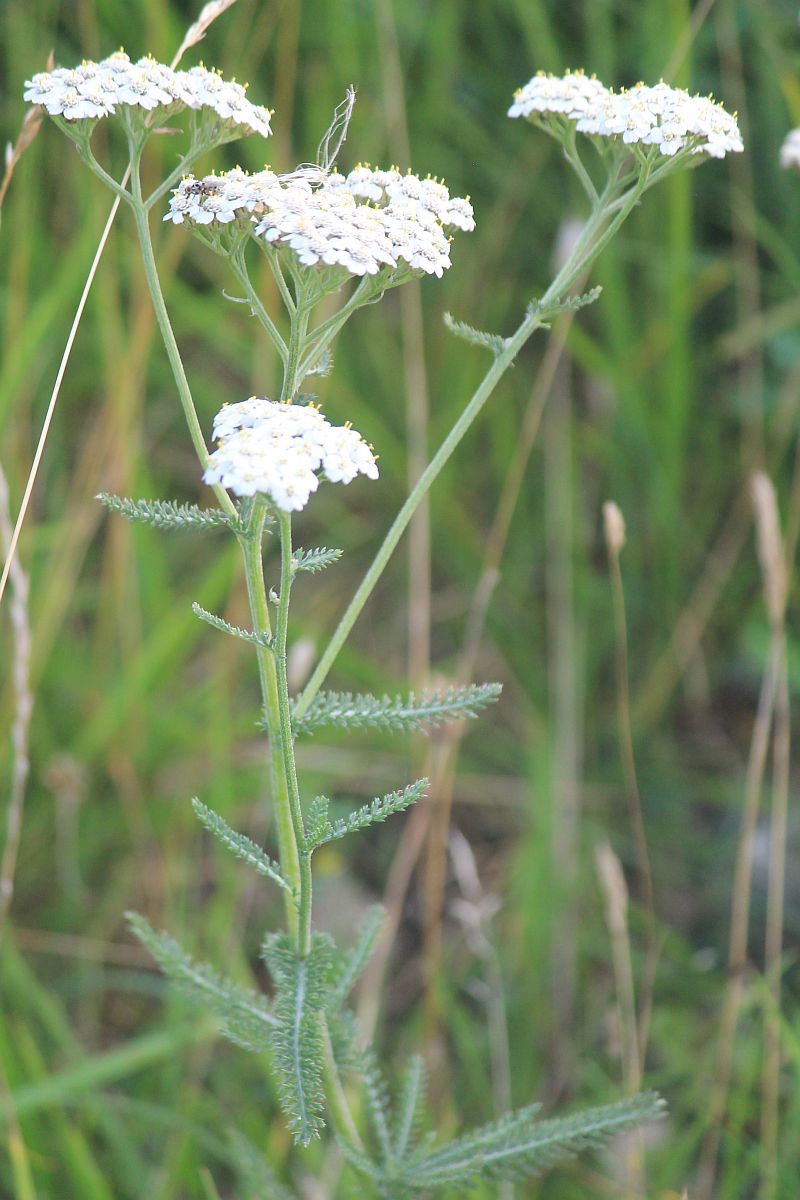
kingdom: Plantae
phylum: Tracheophyta
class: Magnoliopsida
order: Asterales
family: Asteraceae
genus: Achillea
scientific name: Achillea millefolium
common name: Yarrow
